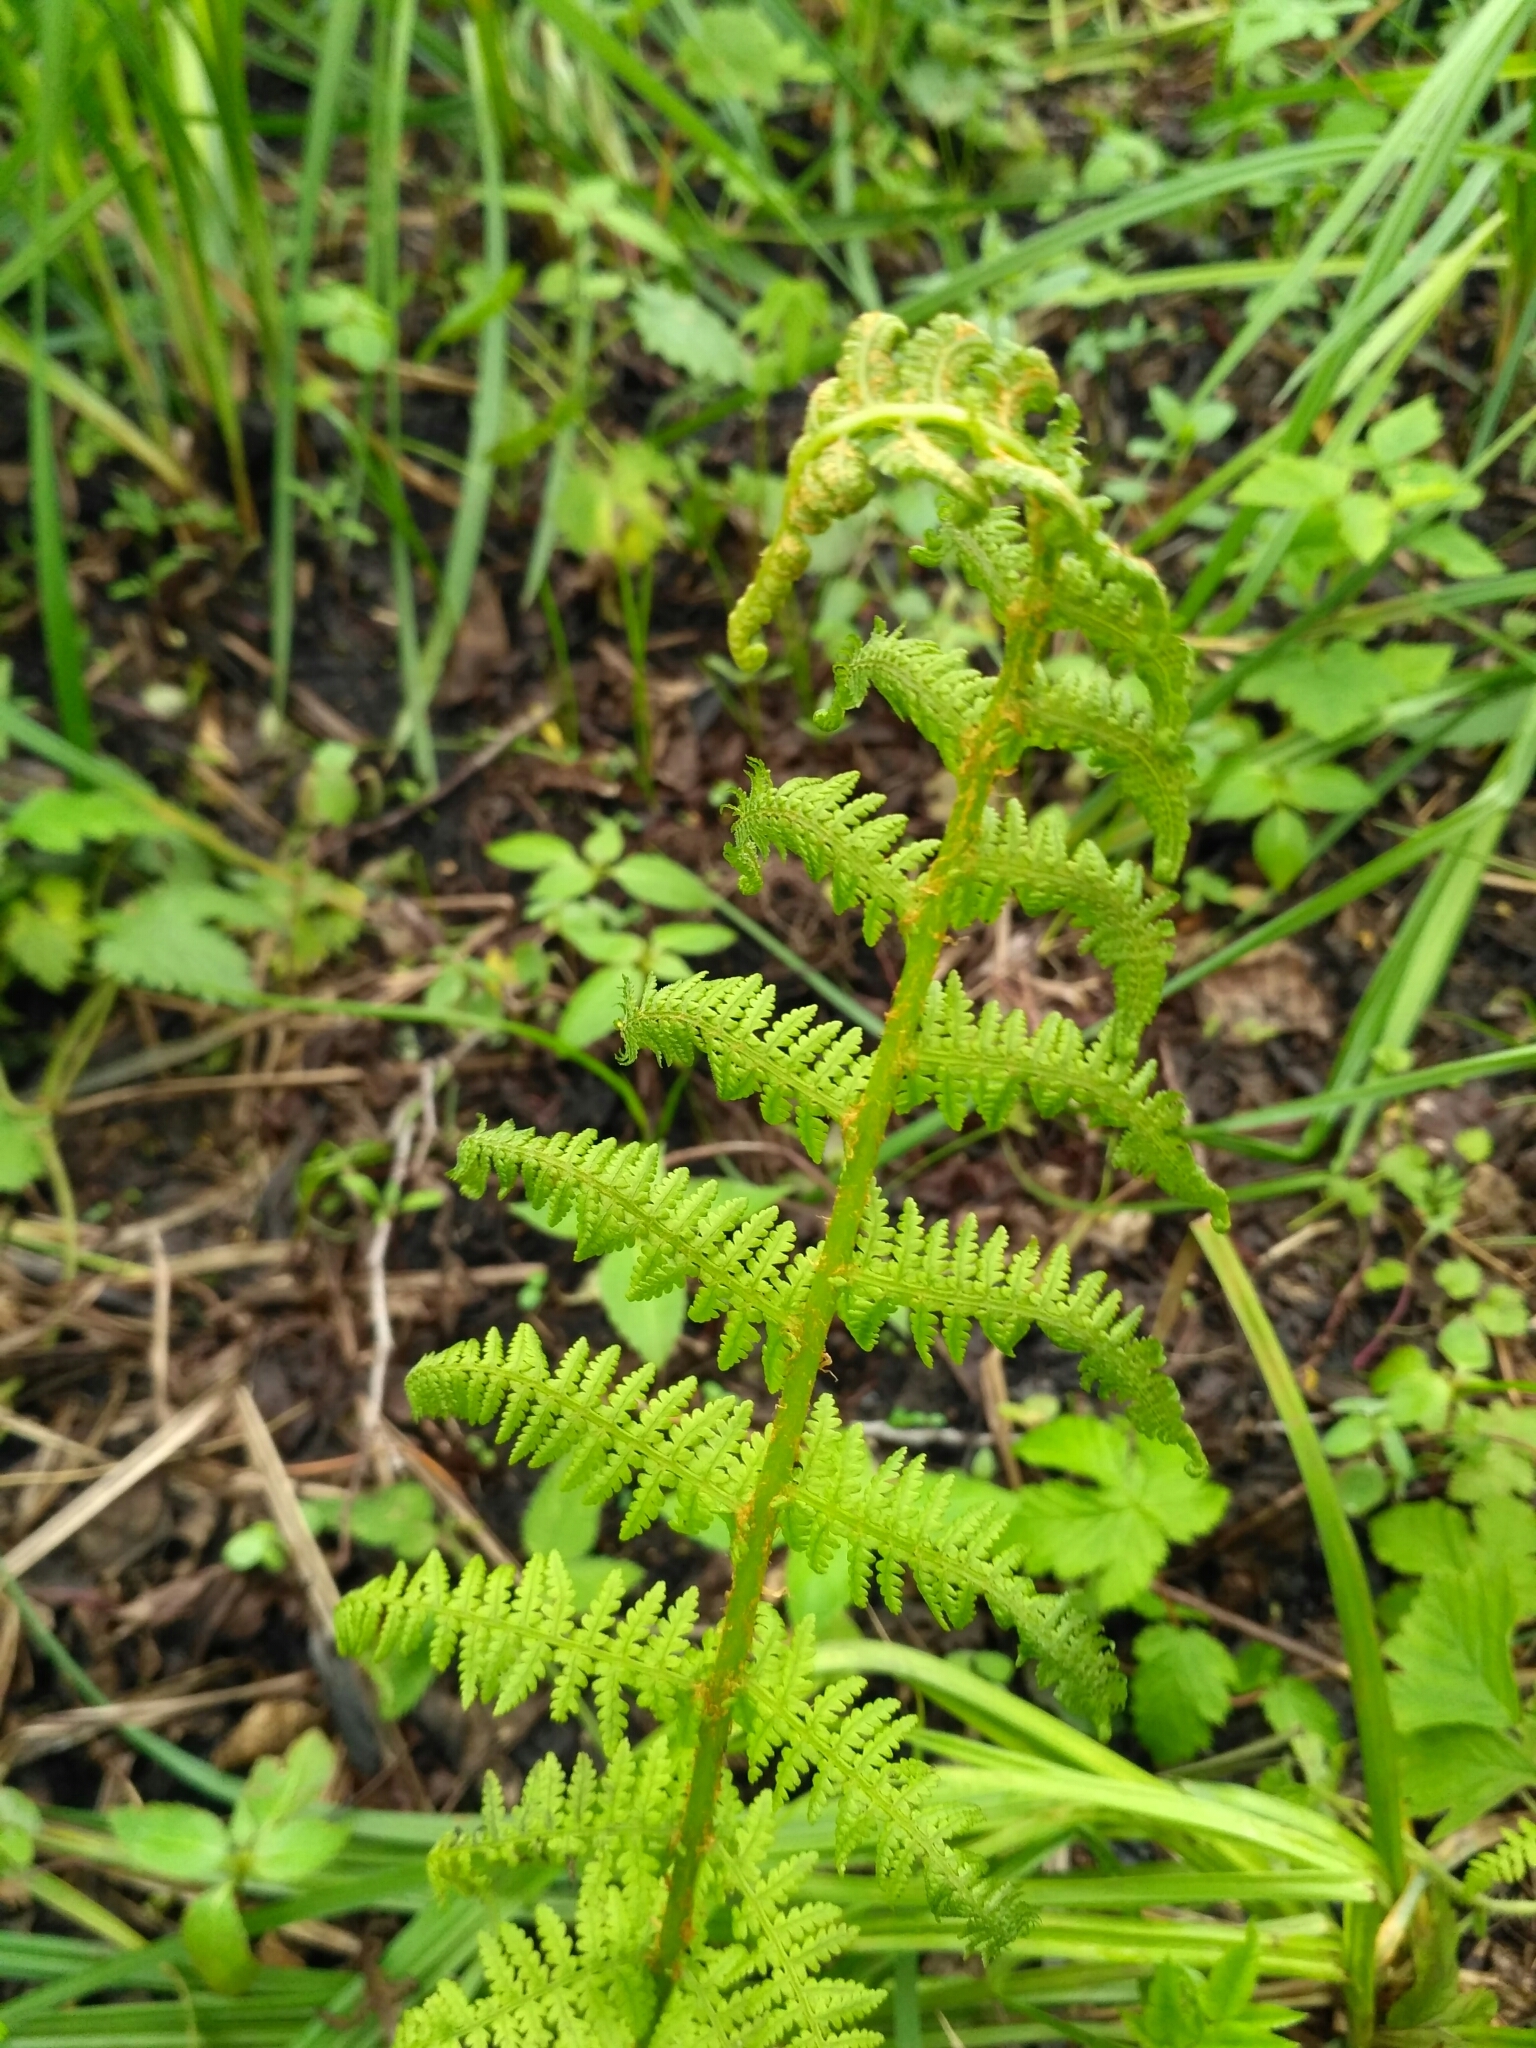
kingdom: Plantae
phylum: Tracheophyta
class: Polypodiopsida
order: Polypodiales
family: Athyriaceae
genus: Athyrium
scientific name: Athyrium filix-femina
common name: Lady fern
